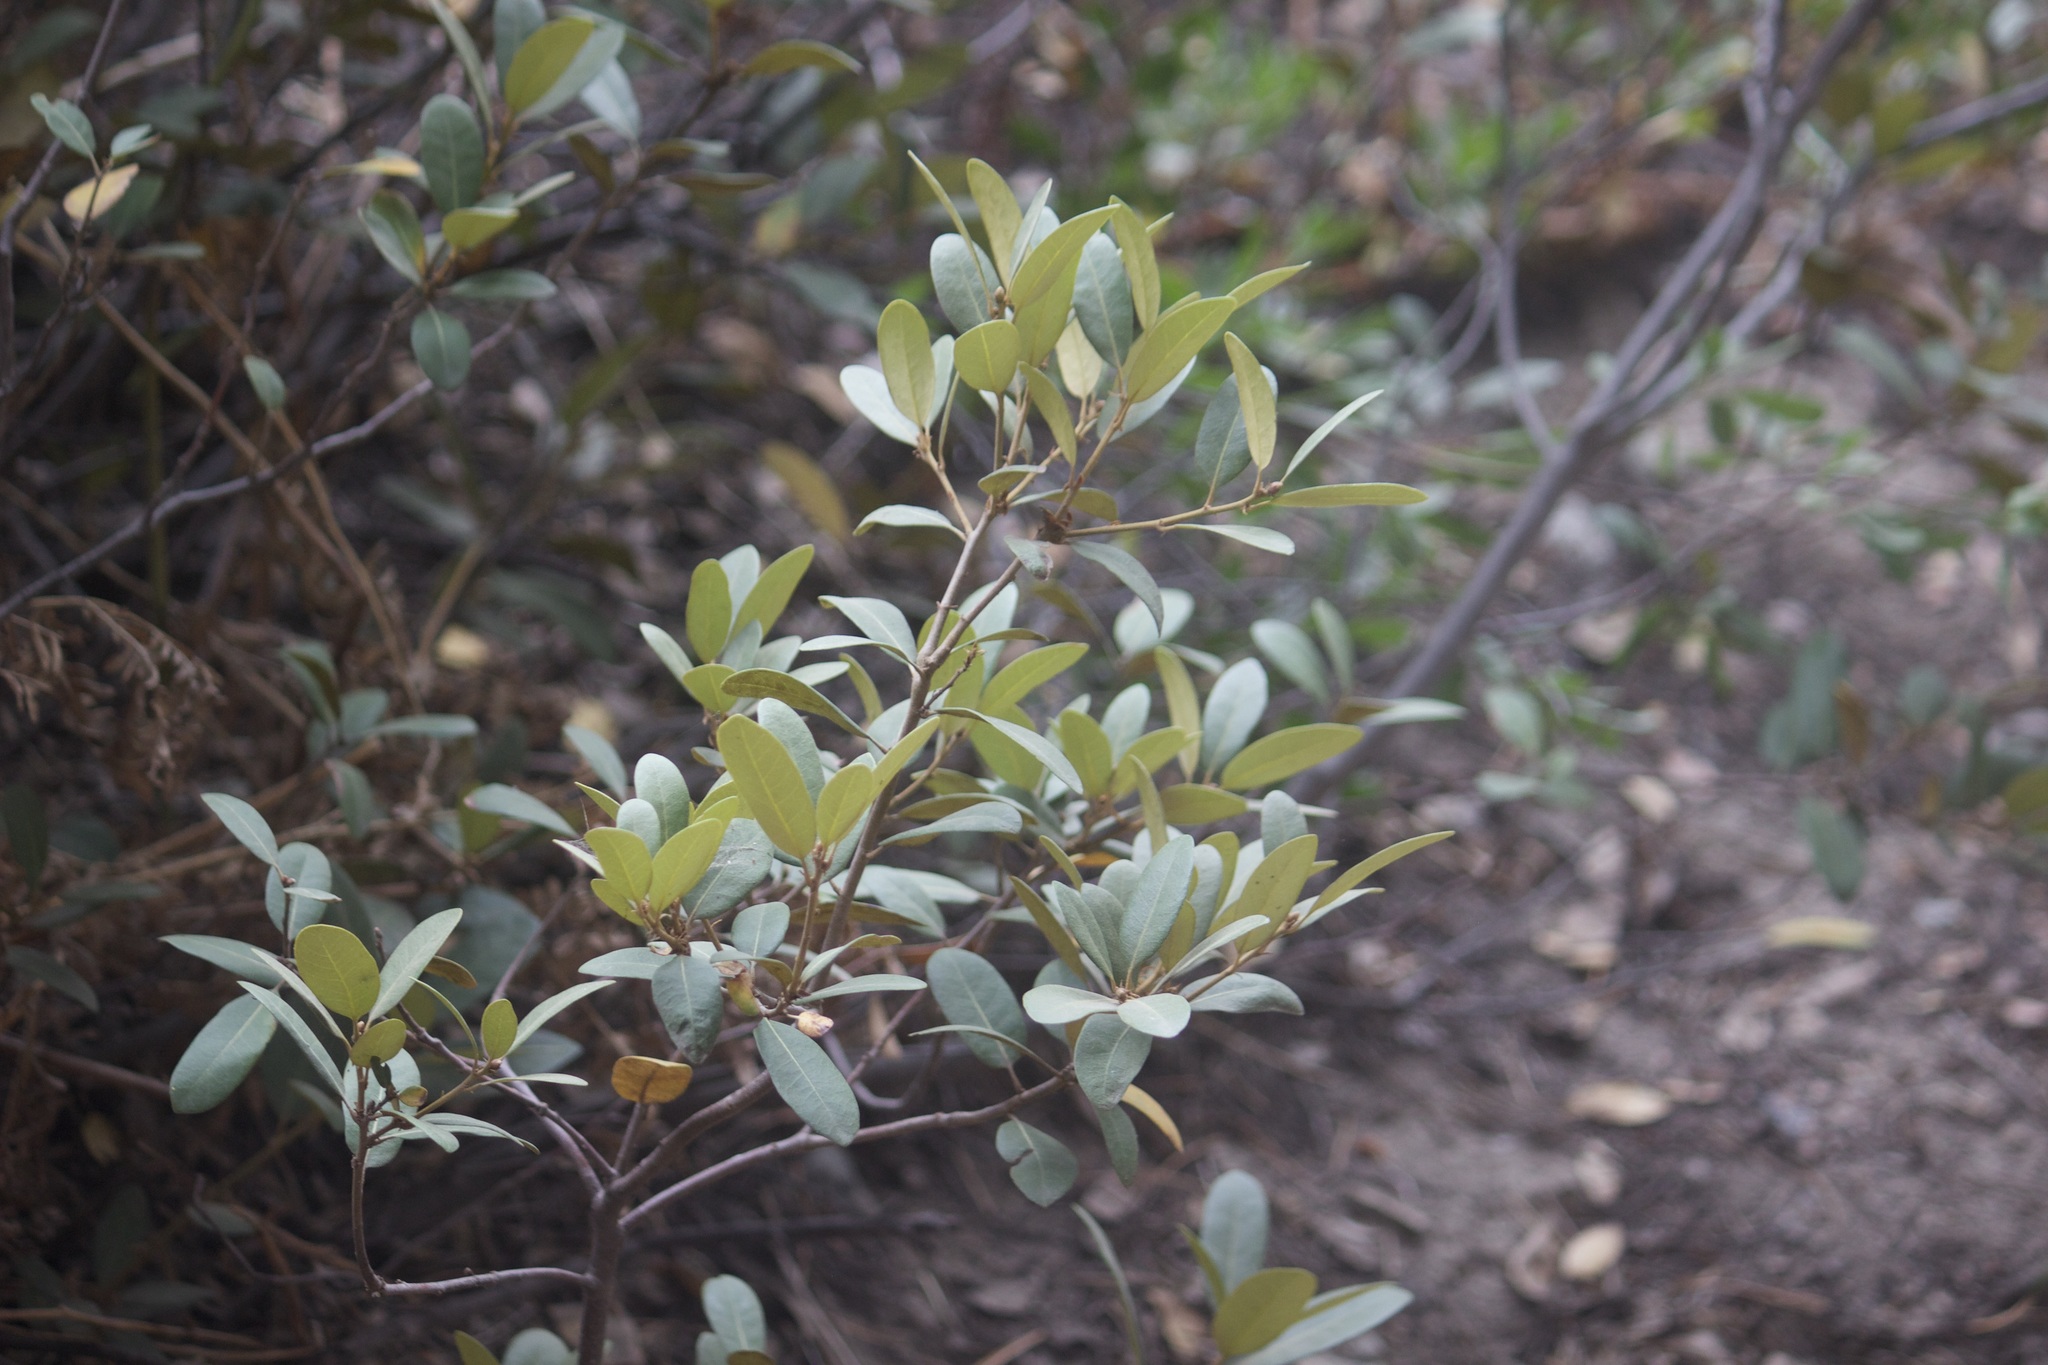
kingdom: Plantae
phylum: Tracheophyta
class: Magnoliopsida
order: Fagales
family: Fagaceae
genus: Chrysolepis
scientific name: Chrysolepis sempervirens
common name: Bush chinquapin
